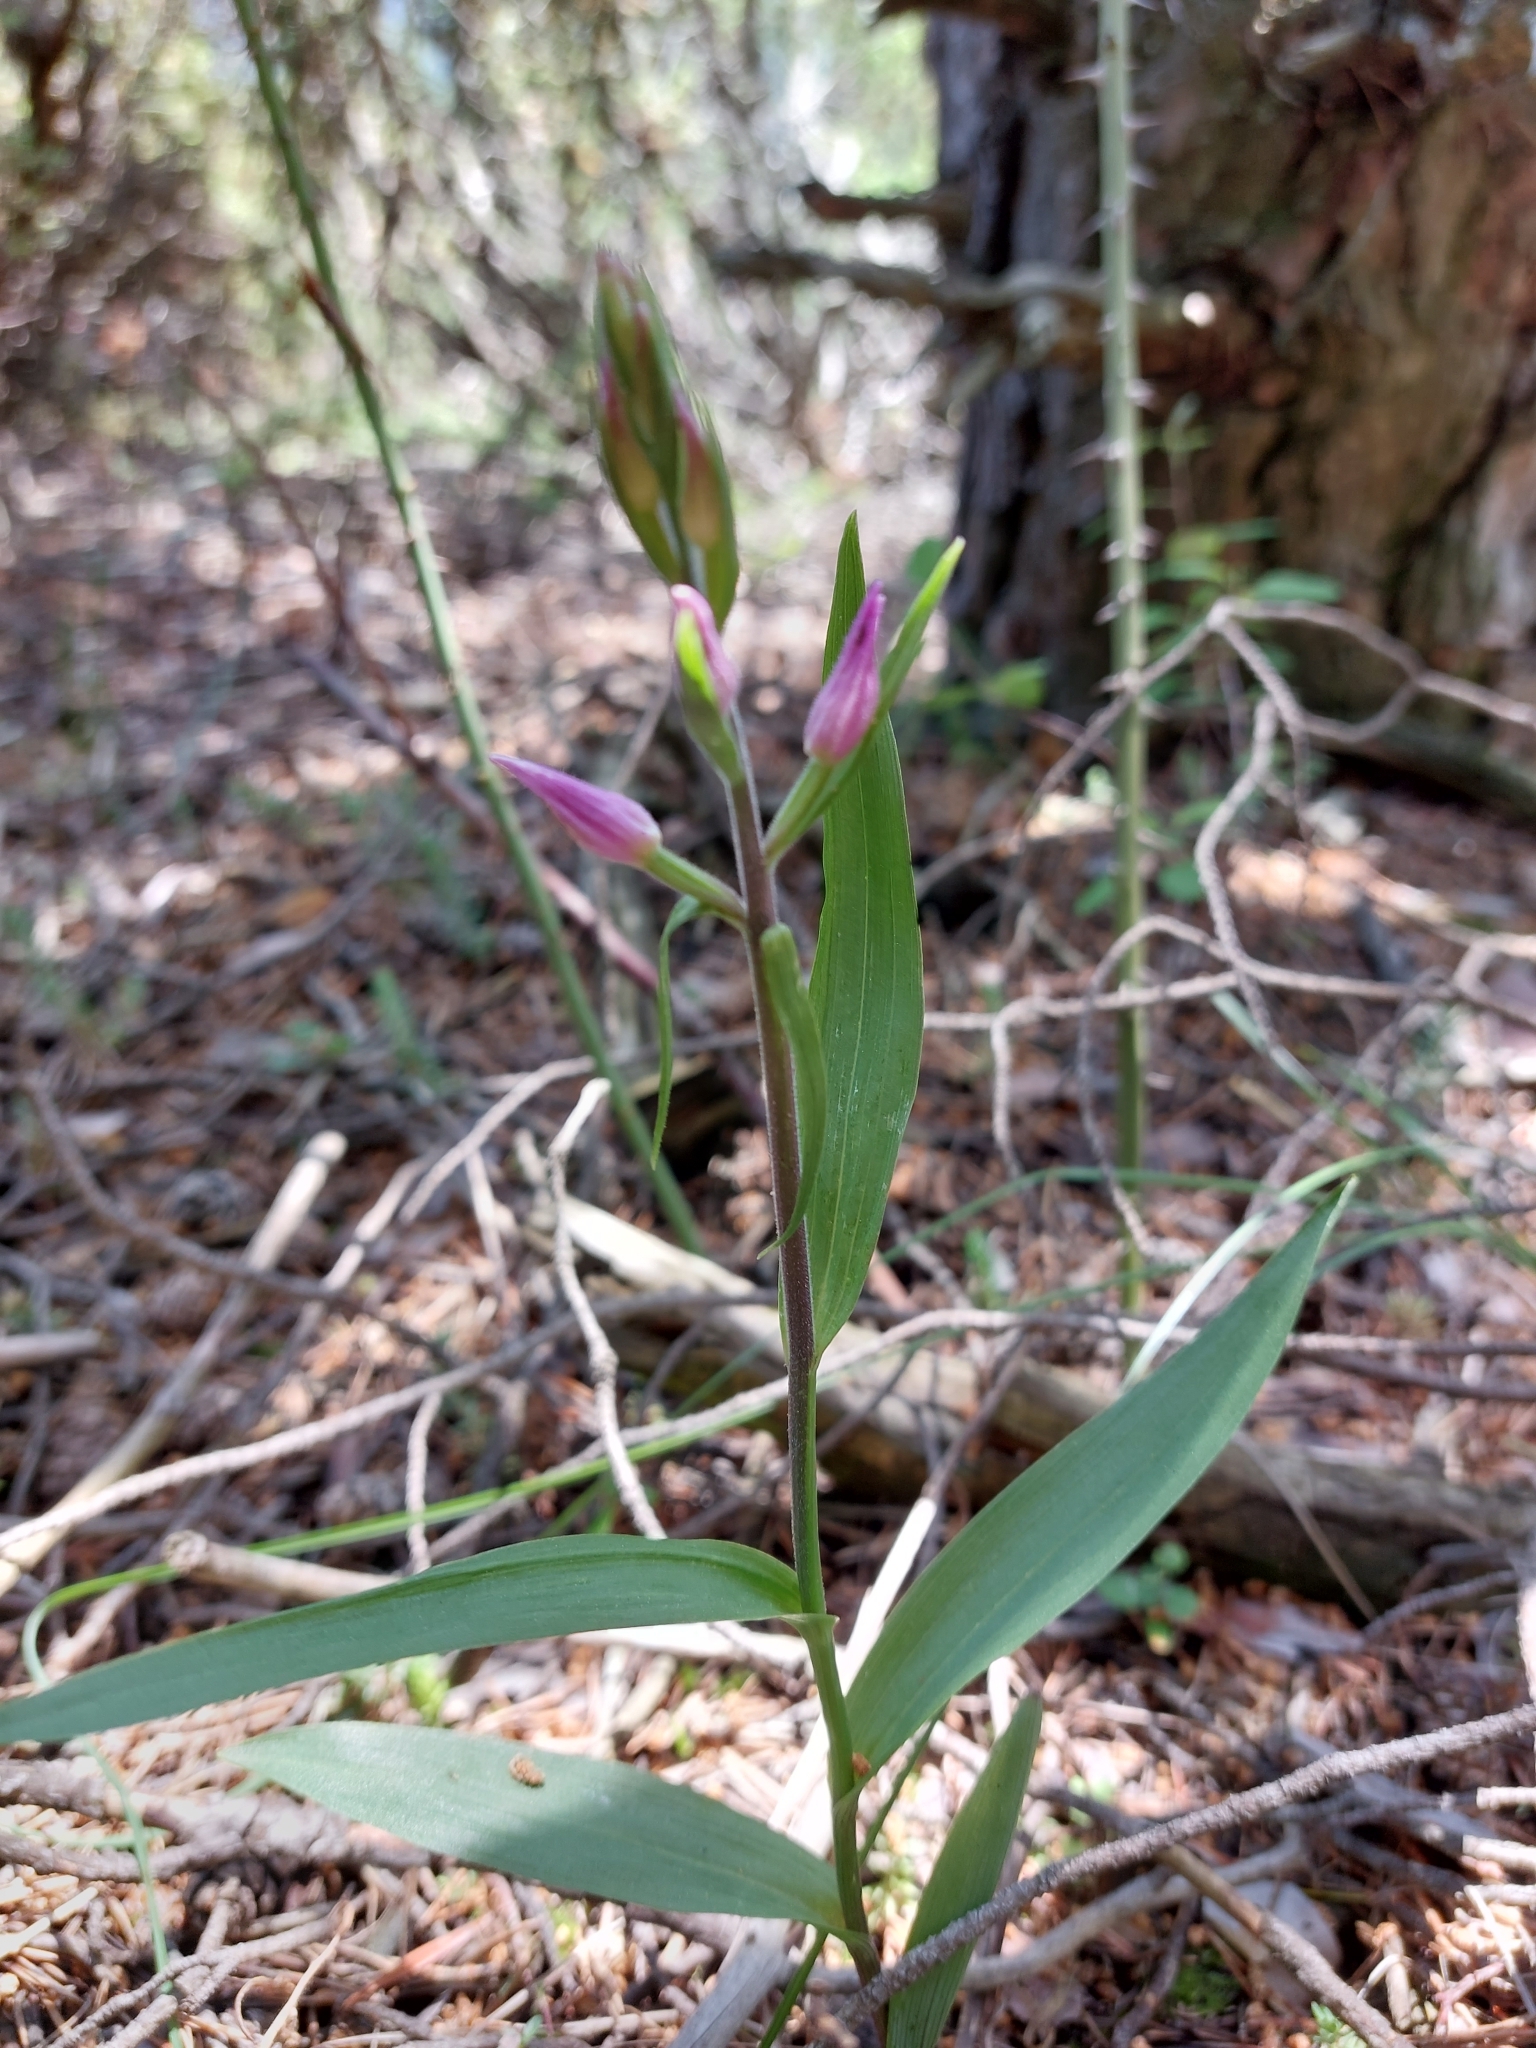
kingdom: Plantae
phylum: Tracheophyta
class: Liliopsida
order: Asparagales
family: Orchidaceae
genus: Cephalanthera
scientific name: Cephalanthera rubra
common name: Red helleborine
